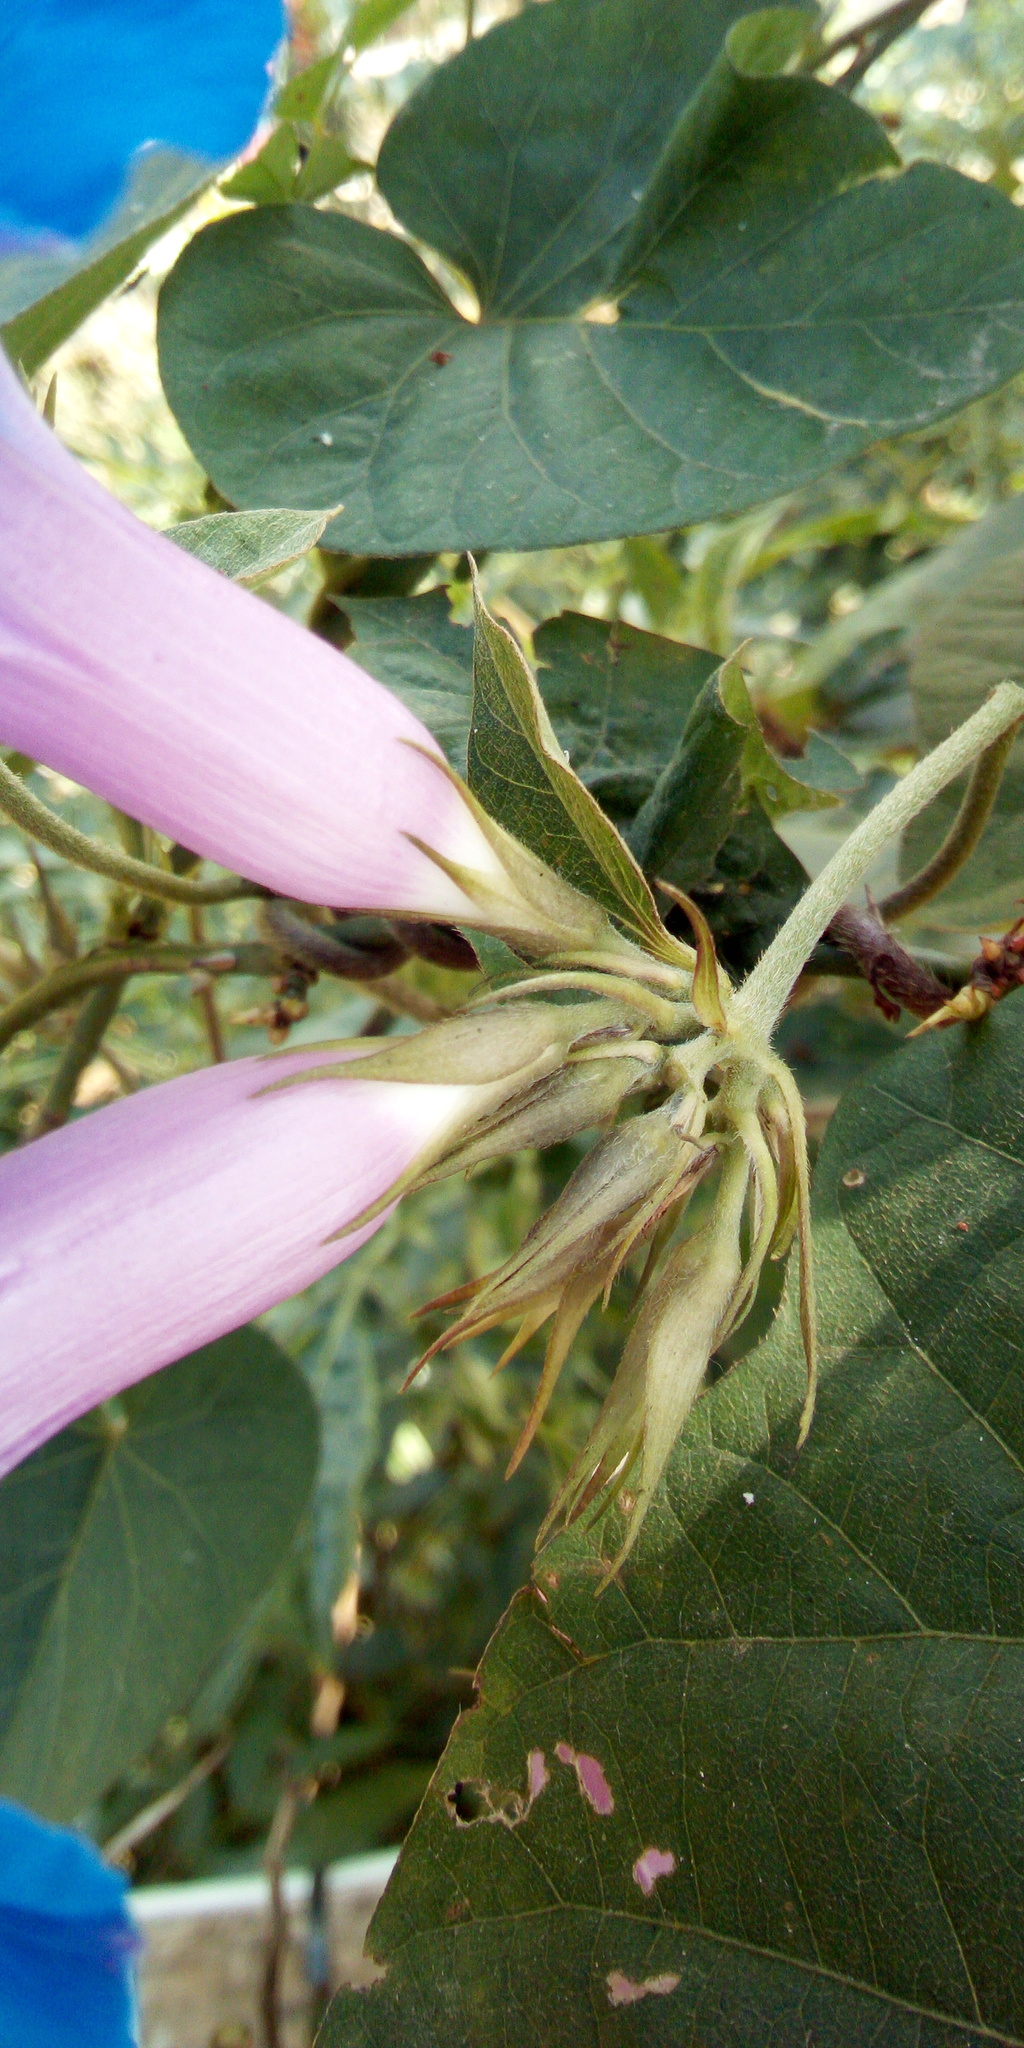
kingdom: Plantae
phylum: Tracheophyta
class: Magnoliopsida
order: Solanales
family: Convolvulaceae
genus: Ipomoea
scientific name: Ipomoea indica
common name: Blue dawnflower
